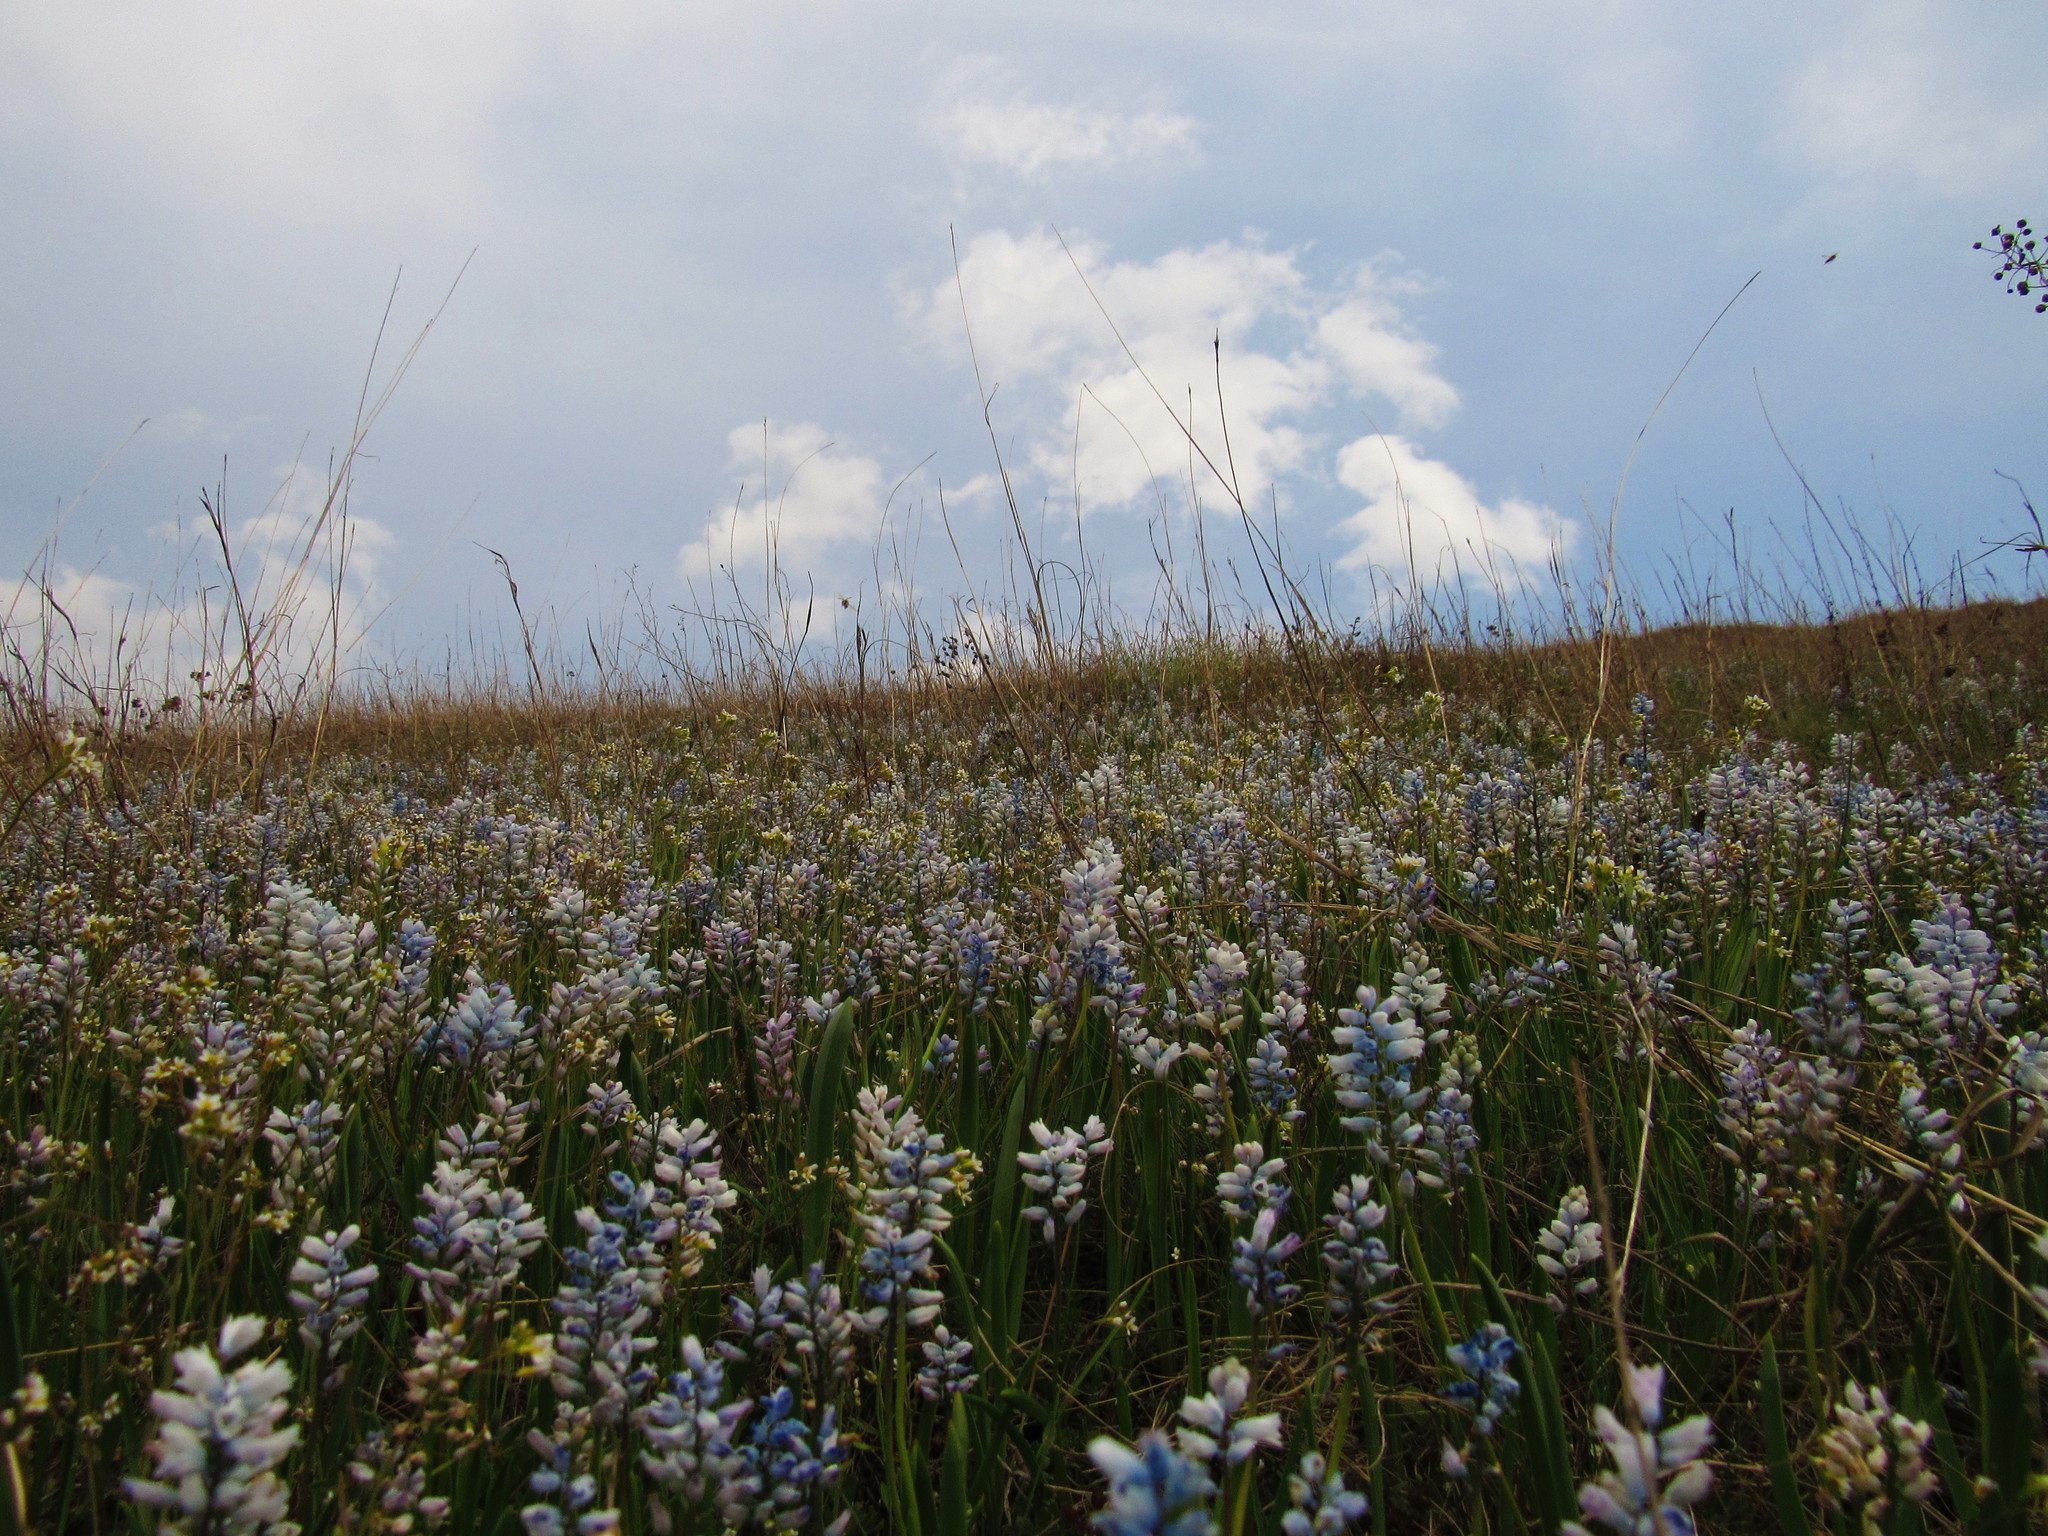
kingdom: Plantae
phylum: Tracheophyta
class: Liliopsida
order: Asparagales
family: Asparagaceae
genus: Hyacinthella
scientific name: Hyacinthella leucophaea
